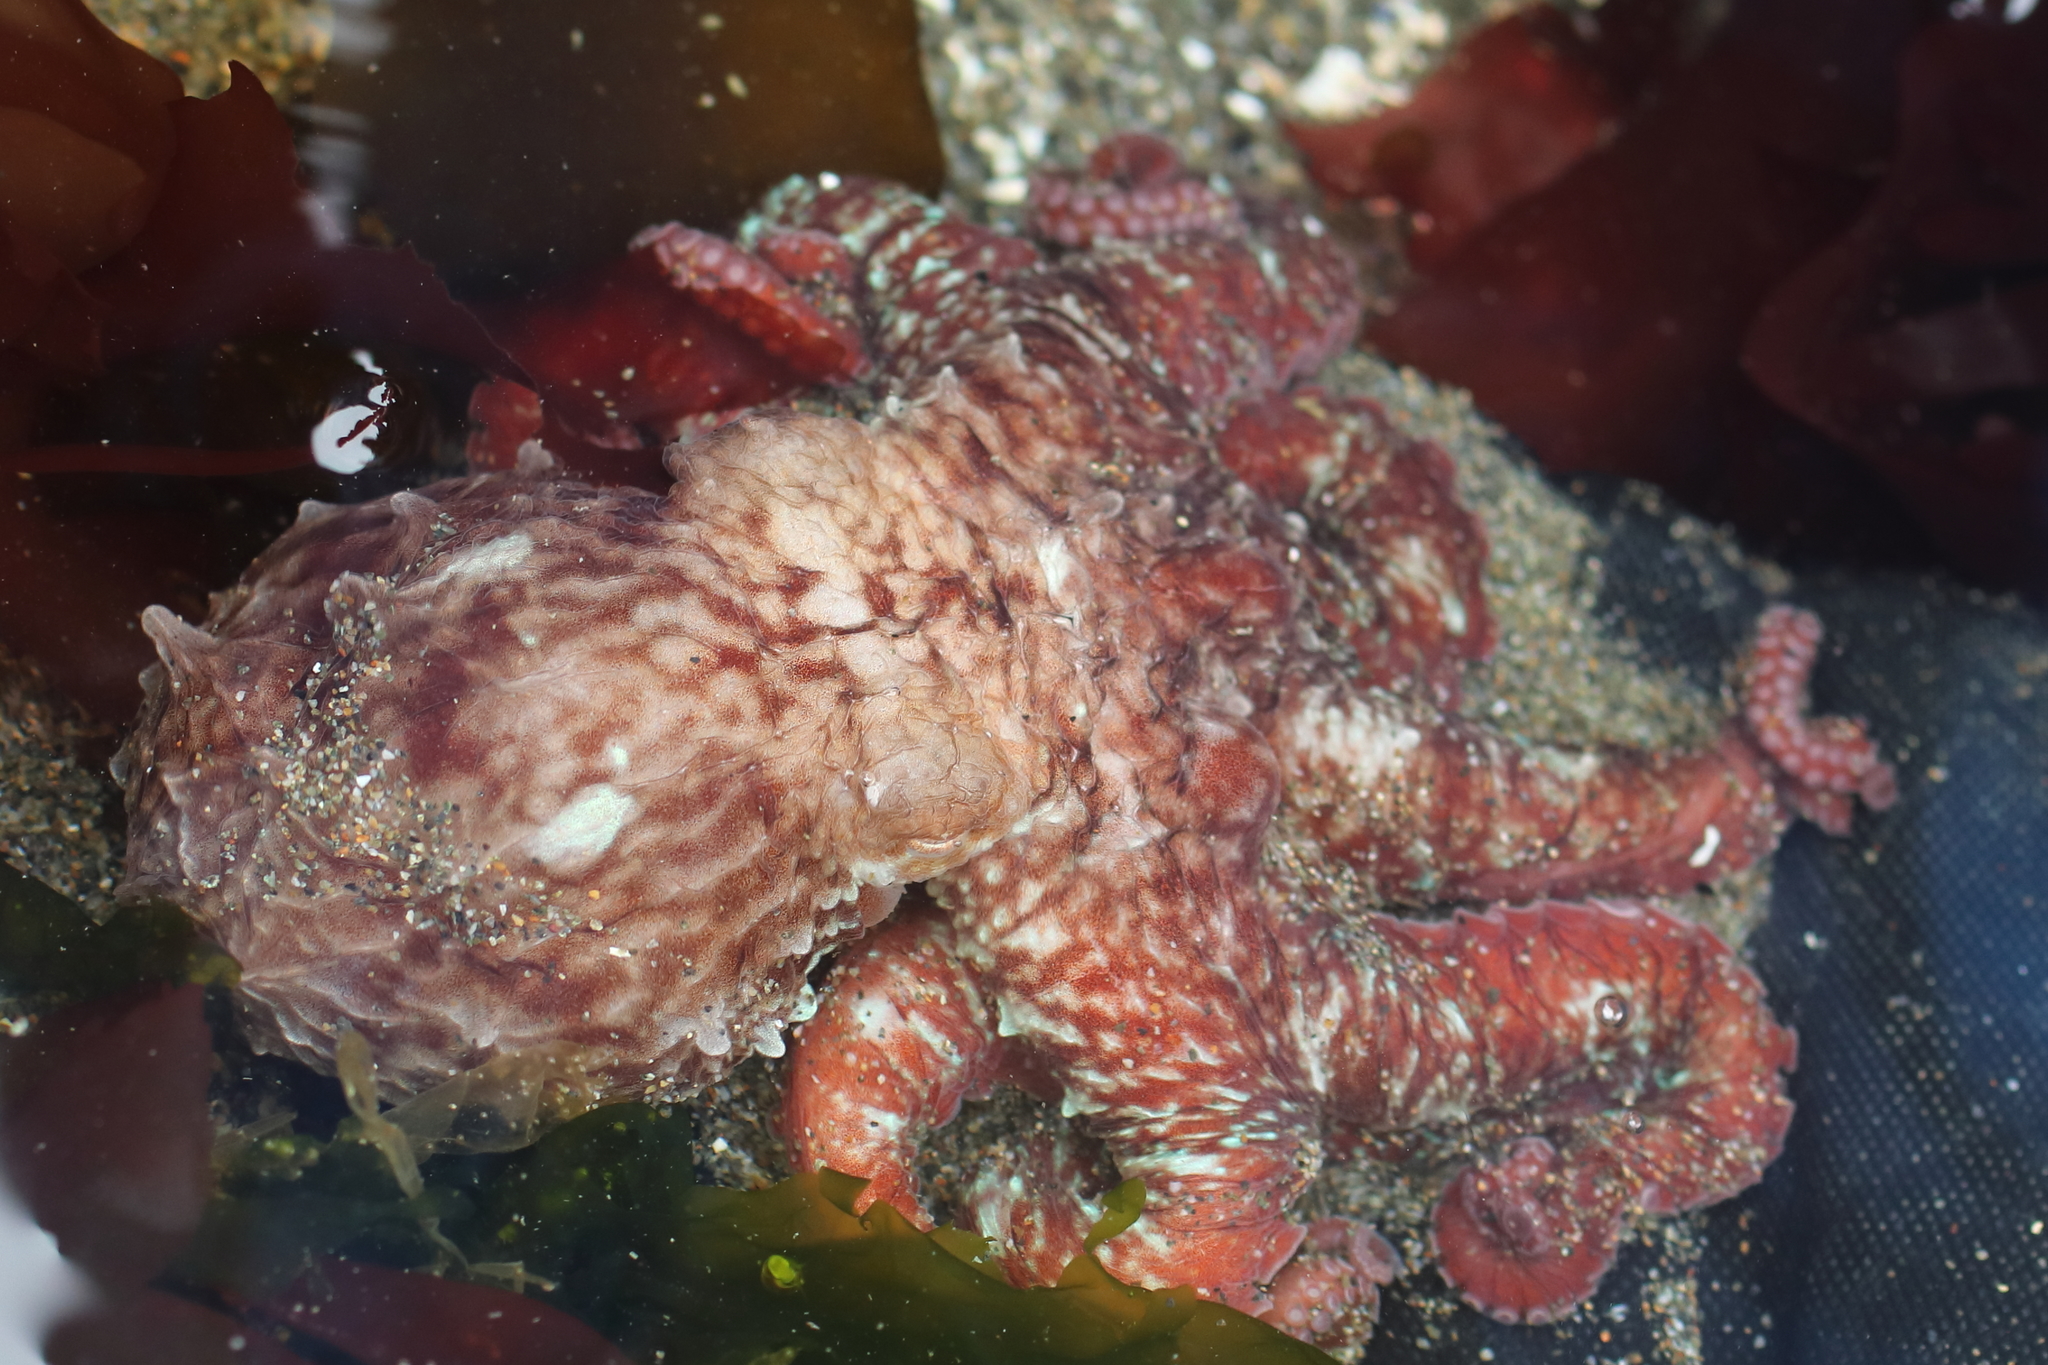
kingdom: Animalia
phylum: Mollusca
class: Cephalopoda
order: Octopoda
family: Enteroctopodidae
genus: Enteroctopus
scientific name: Enteroctopus dofleini
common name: Giant north pacific octopus
